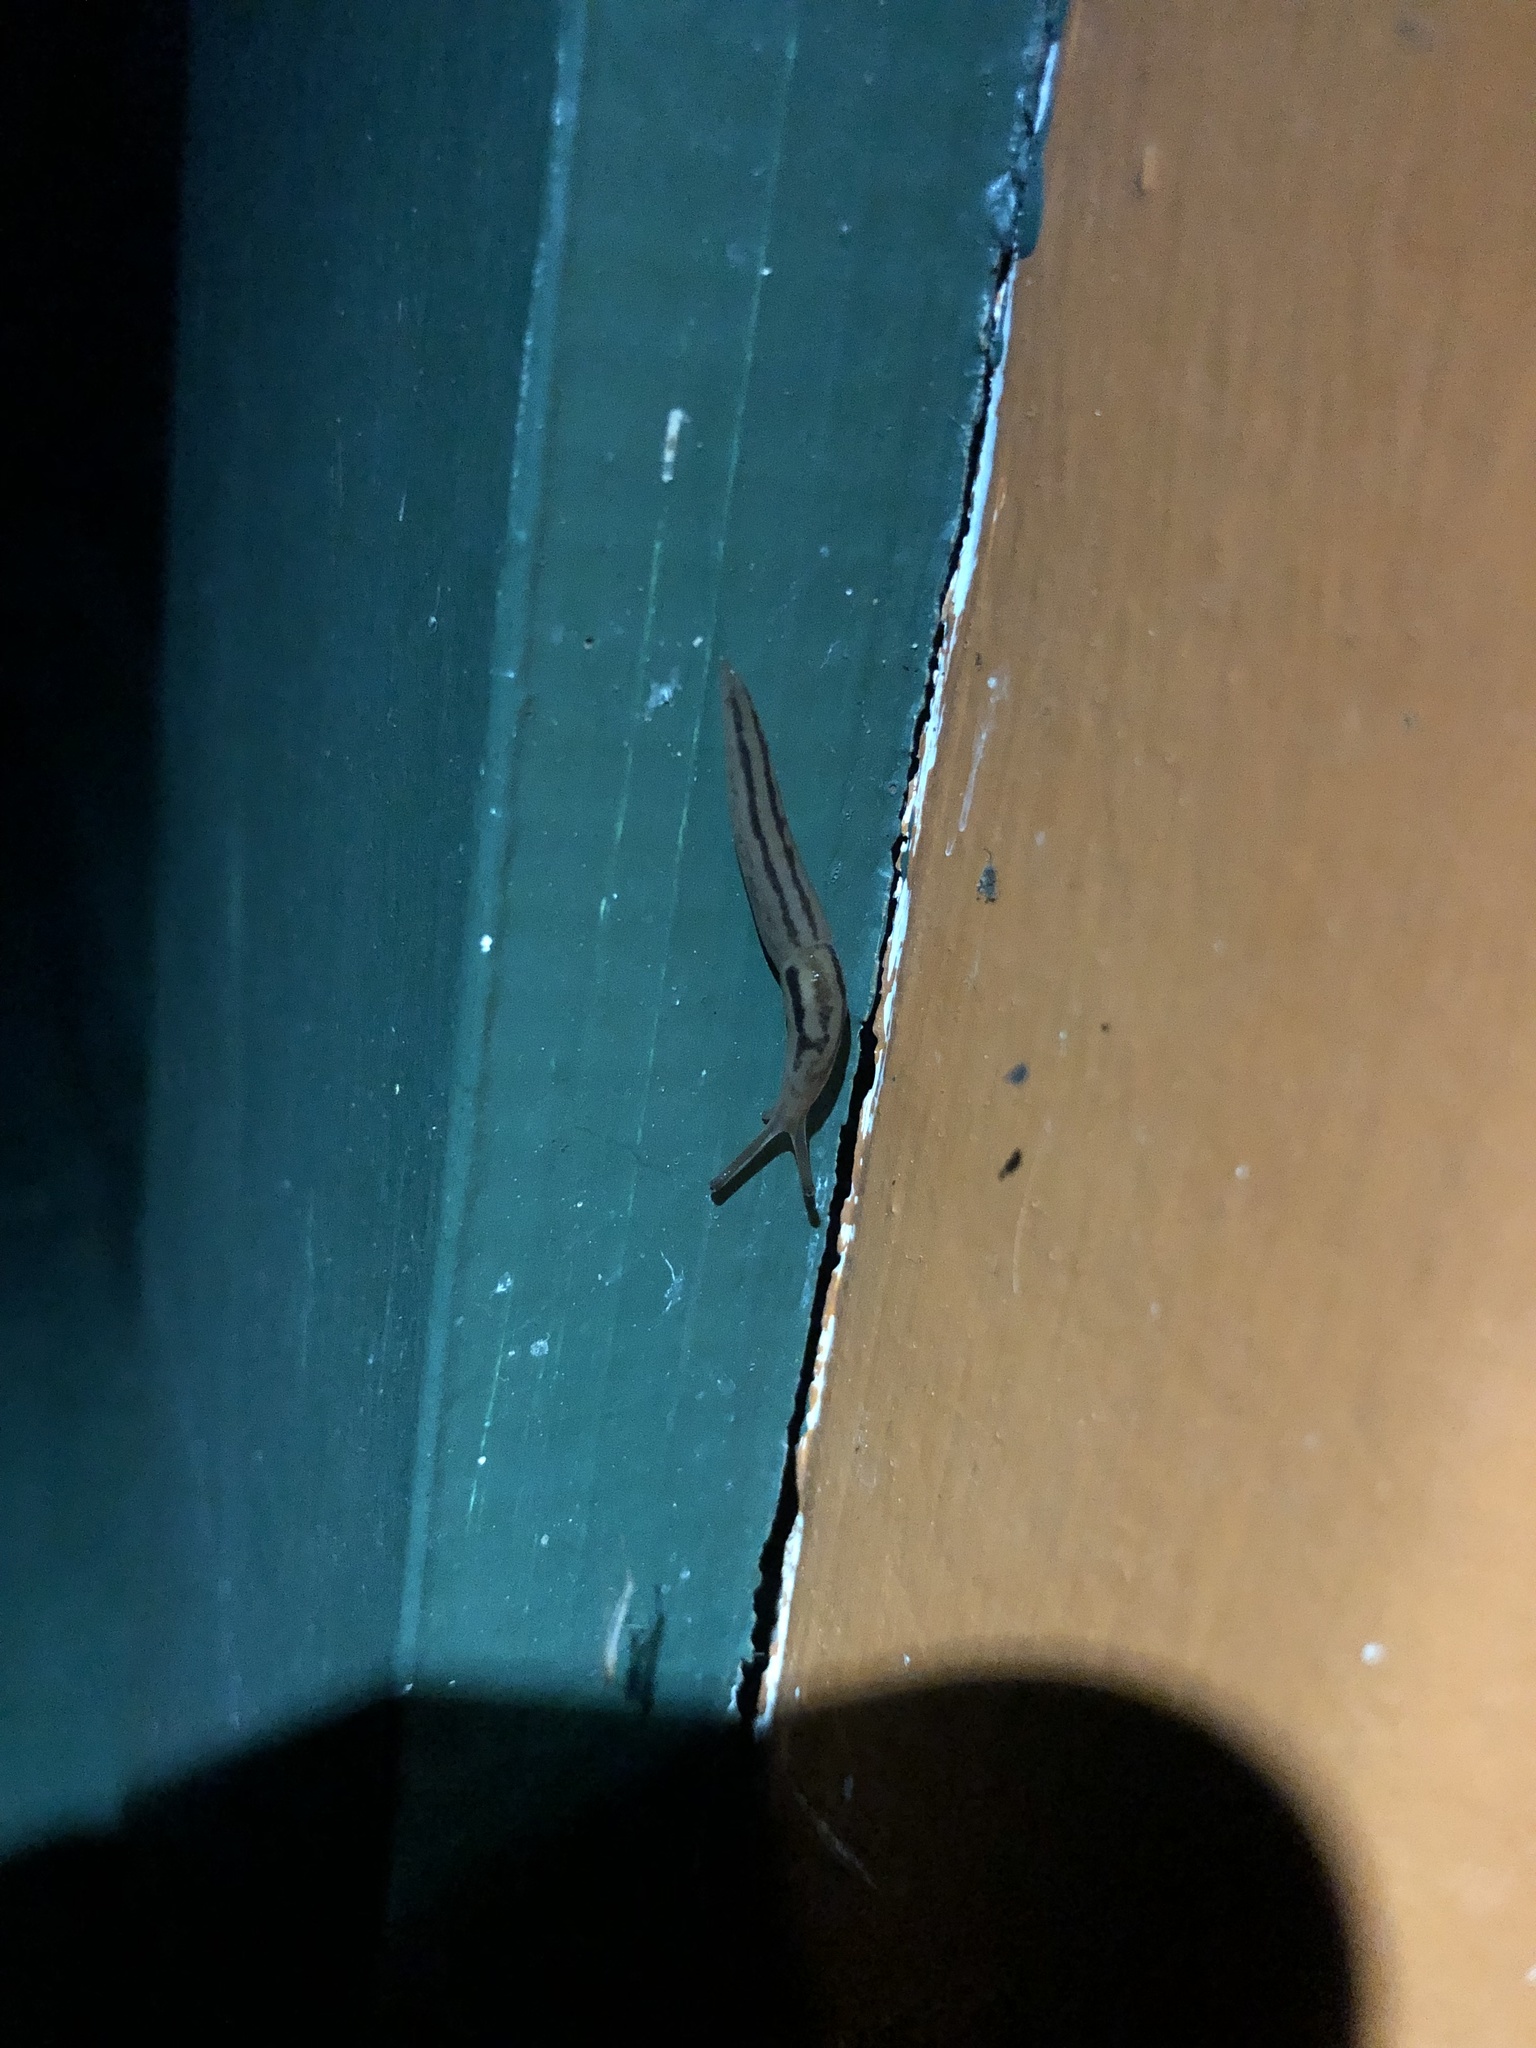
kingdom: Animalia
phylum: Mollusca
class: Gastropoda
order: Stylommatophora
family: Limacidae
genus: Ambigolimax
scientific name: Ambigolimax
